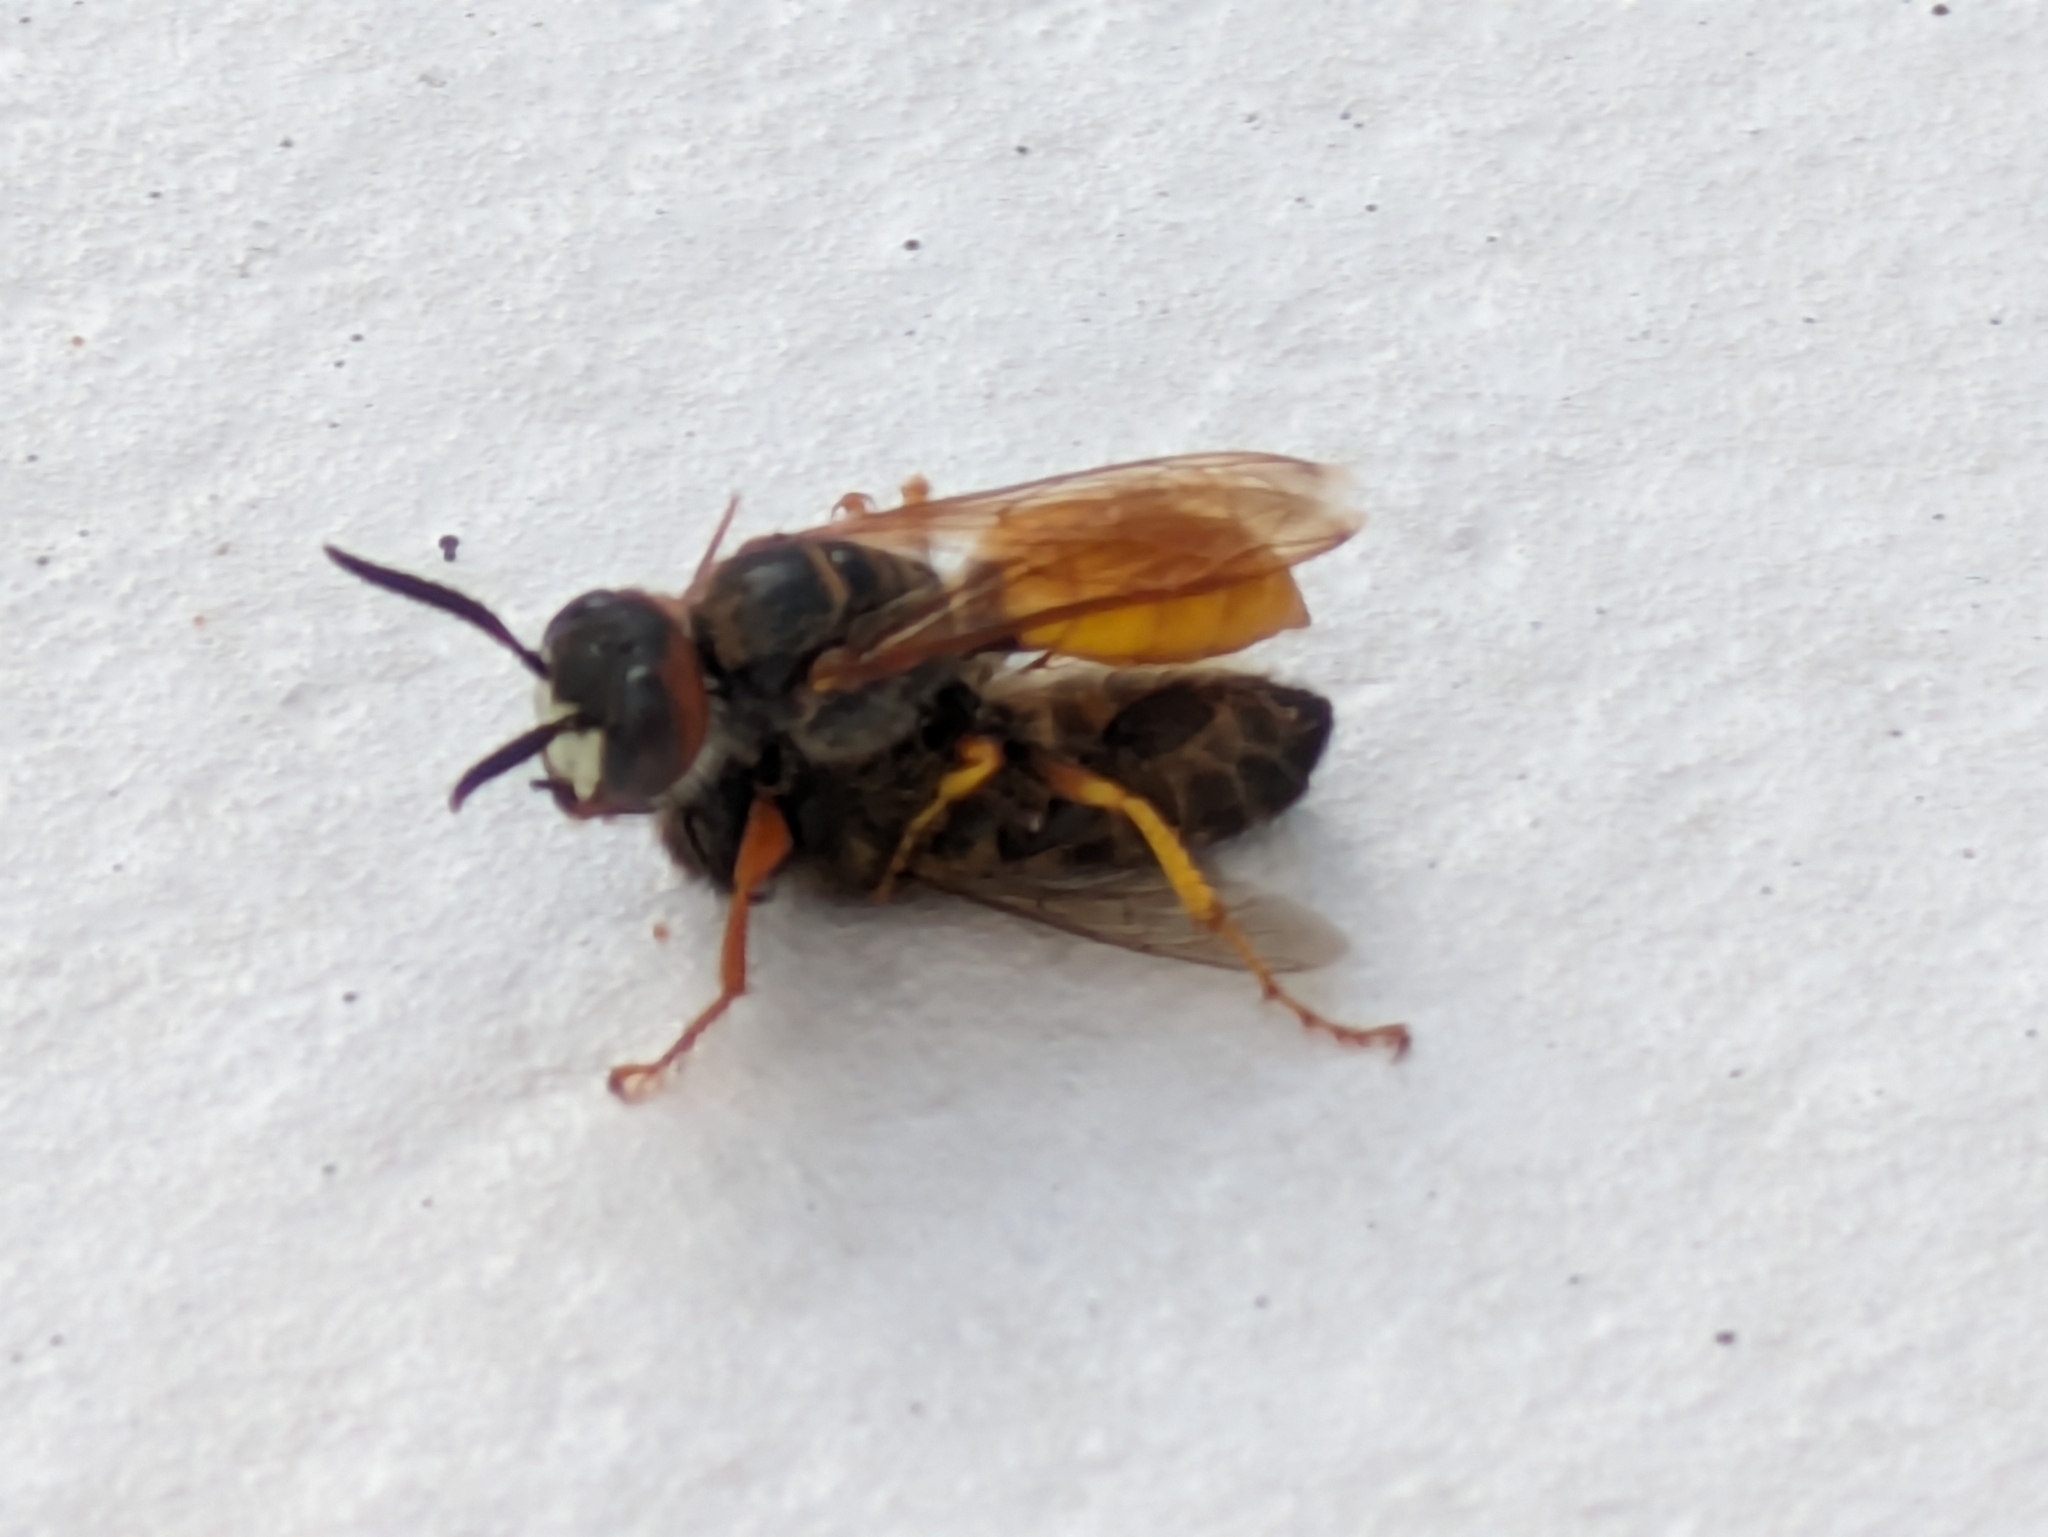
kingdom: Animalia
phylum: Arthropoda
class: Insecta
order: Hymenoptera
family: Crabronidae
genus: Philanthus
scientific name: Philanthus triangulum
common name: Bee wolf
